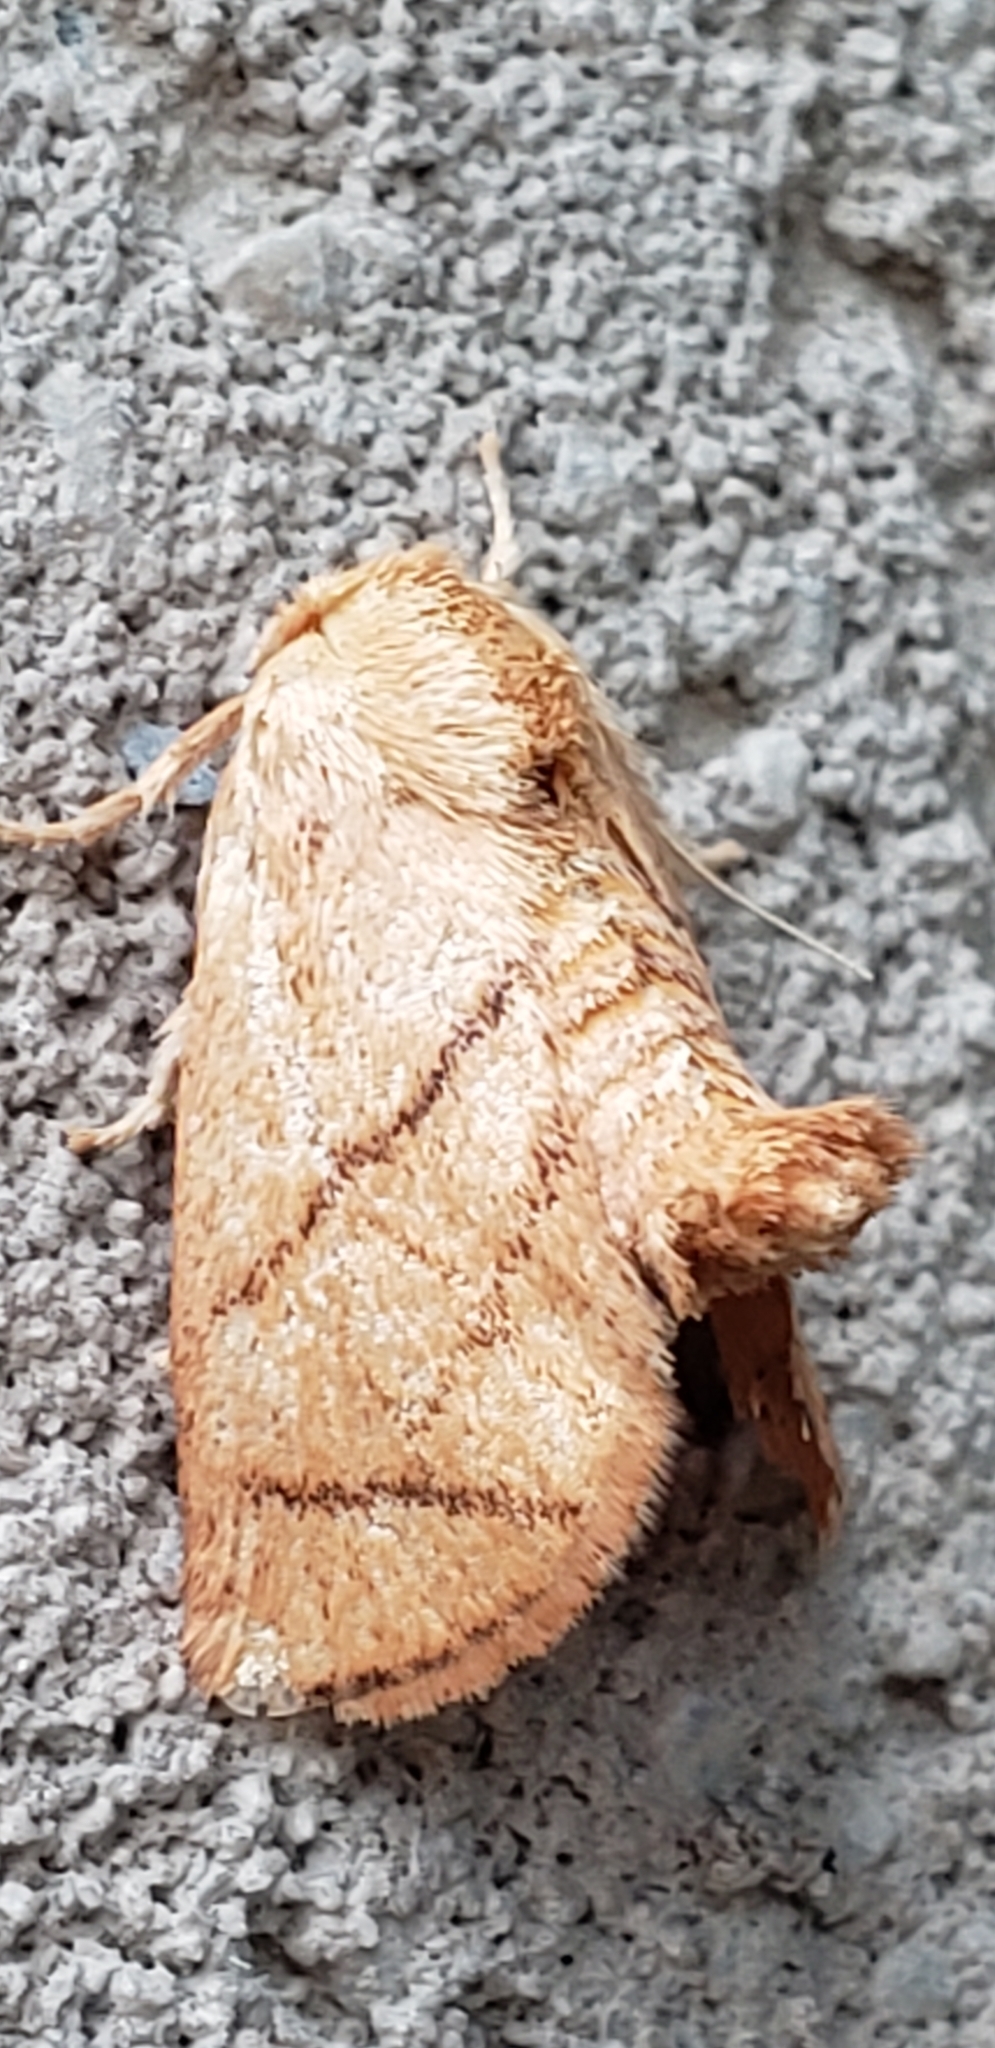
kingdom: Animalia
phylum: Arthropoda
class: Insecta
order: Lepidoptera
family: Limacodidae
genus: Apoda
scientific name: Apoda y-inversa
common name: Yellow-collared slug moth
